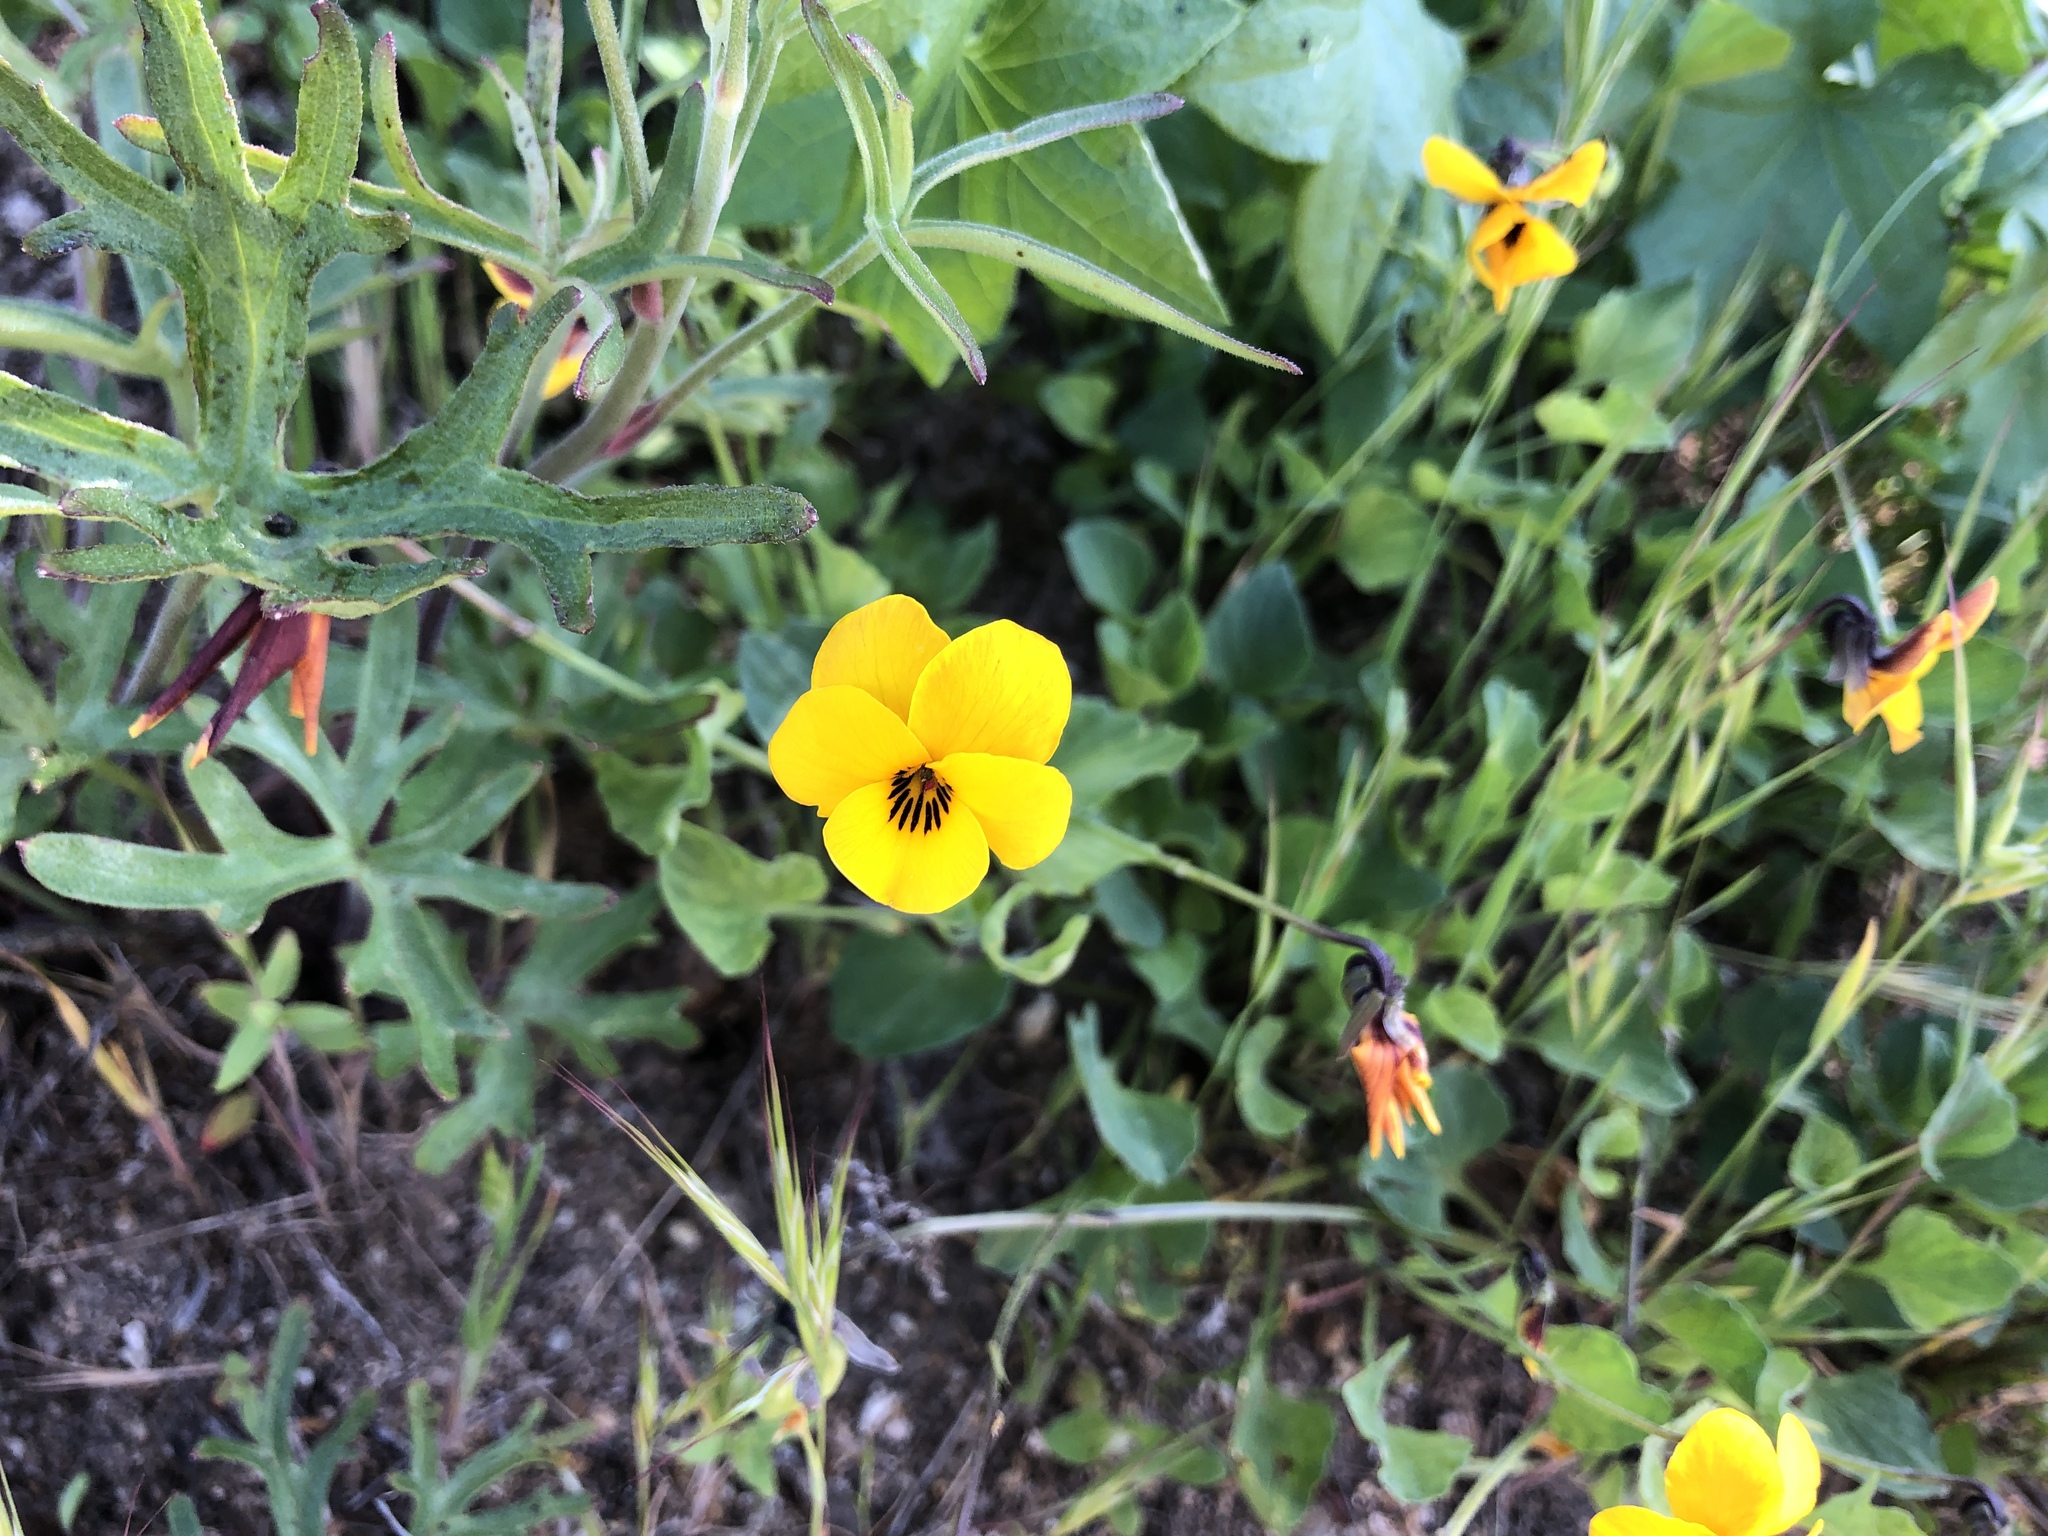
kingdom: Plantae
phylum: Tracheophyta
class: Magnoliopsida
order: Malpighiales
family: Violaceae
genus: Viola
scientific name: Viola pedunculata
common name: California golden violet
